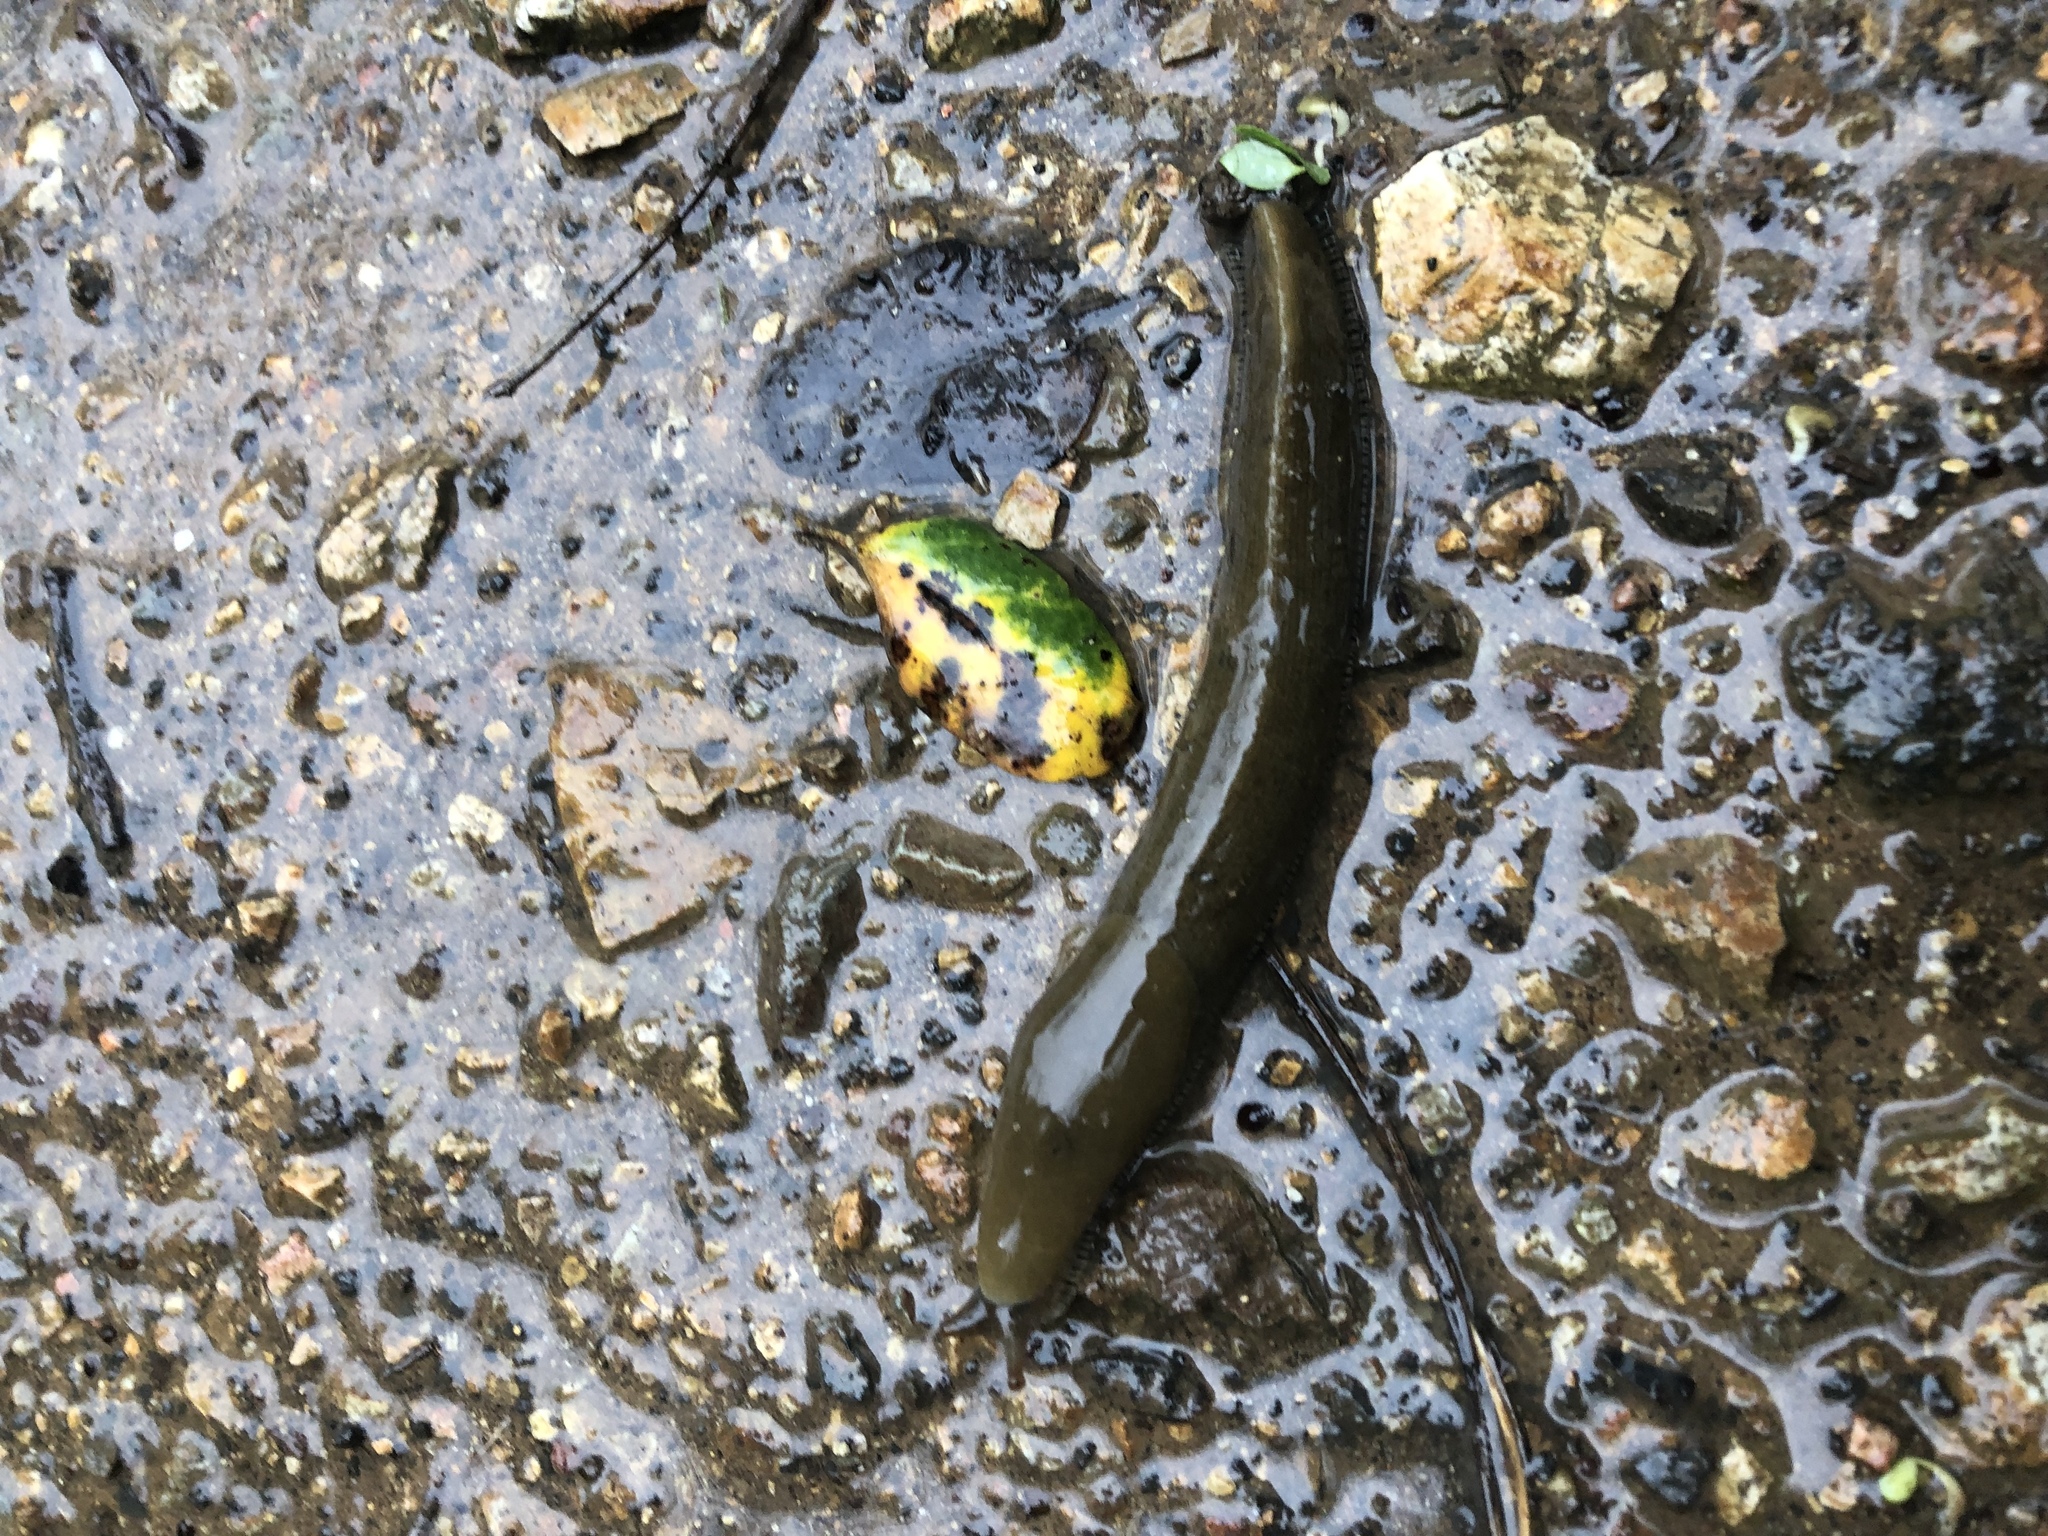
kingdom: Animalia
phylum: Mollusca
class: Gastropoda
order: Stylommatophora
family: Ariolimacidae
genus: Ariolimax
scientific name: Ariolimax buttoni
